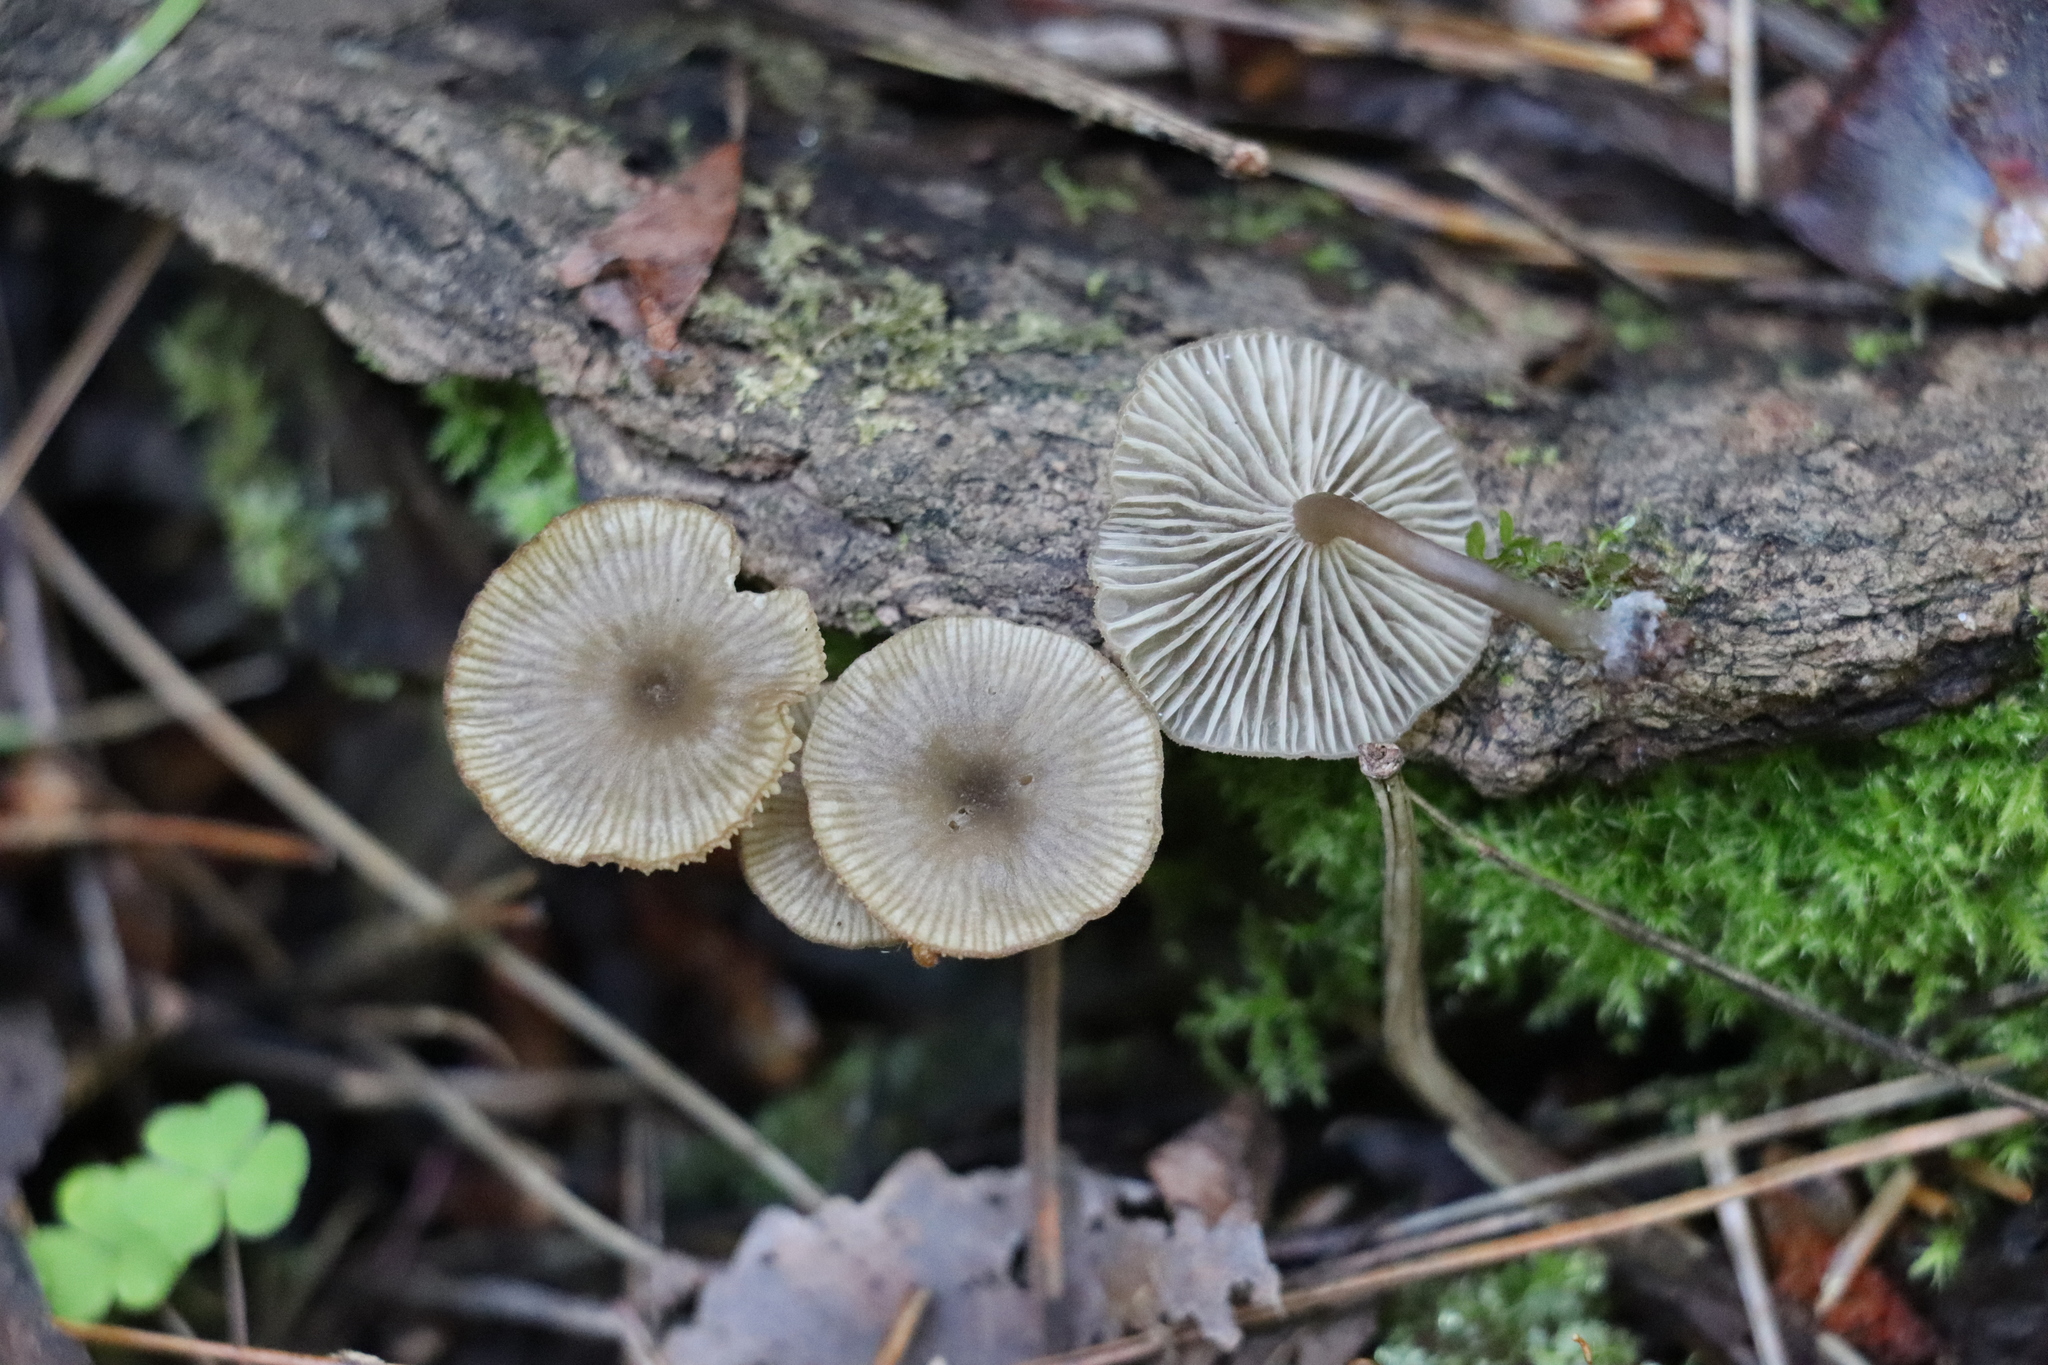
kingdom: Fungi
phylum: Basidiomycota
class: Agaricomycetes
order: Agaricales
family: Hygrophoraceae
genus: Arrhenia
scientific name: Arrhenia epichysium
